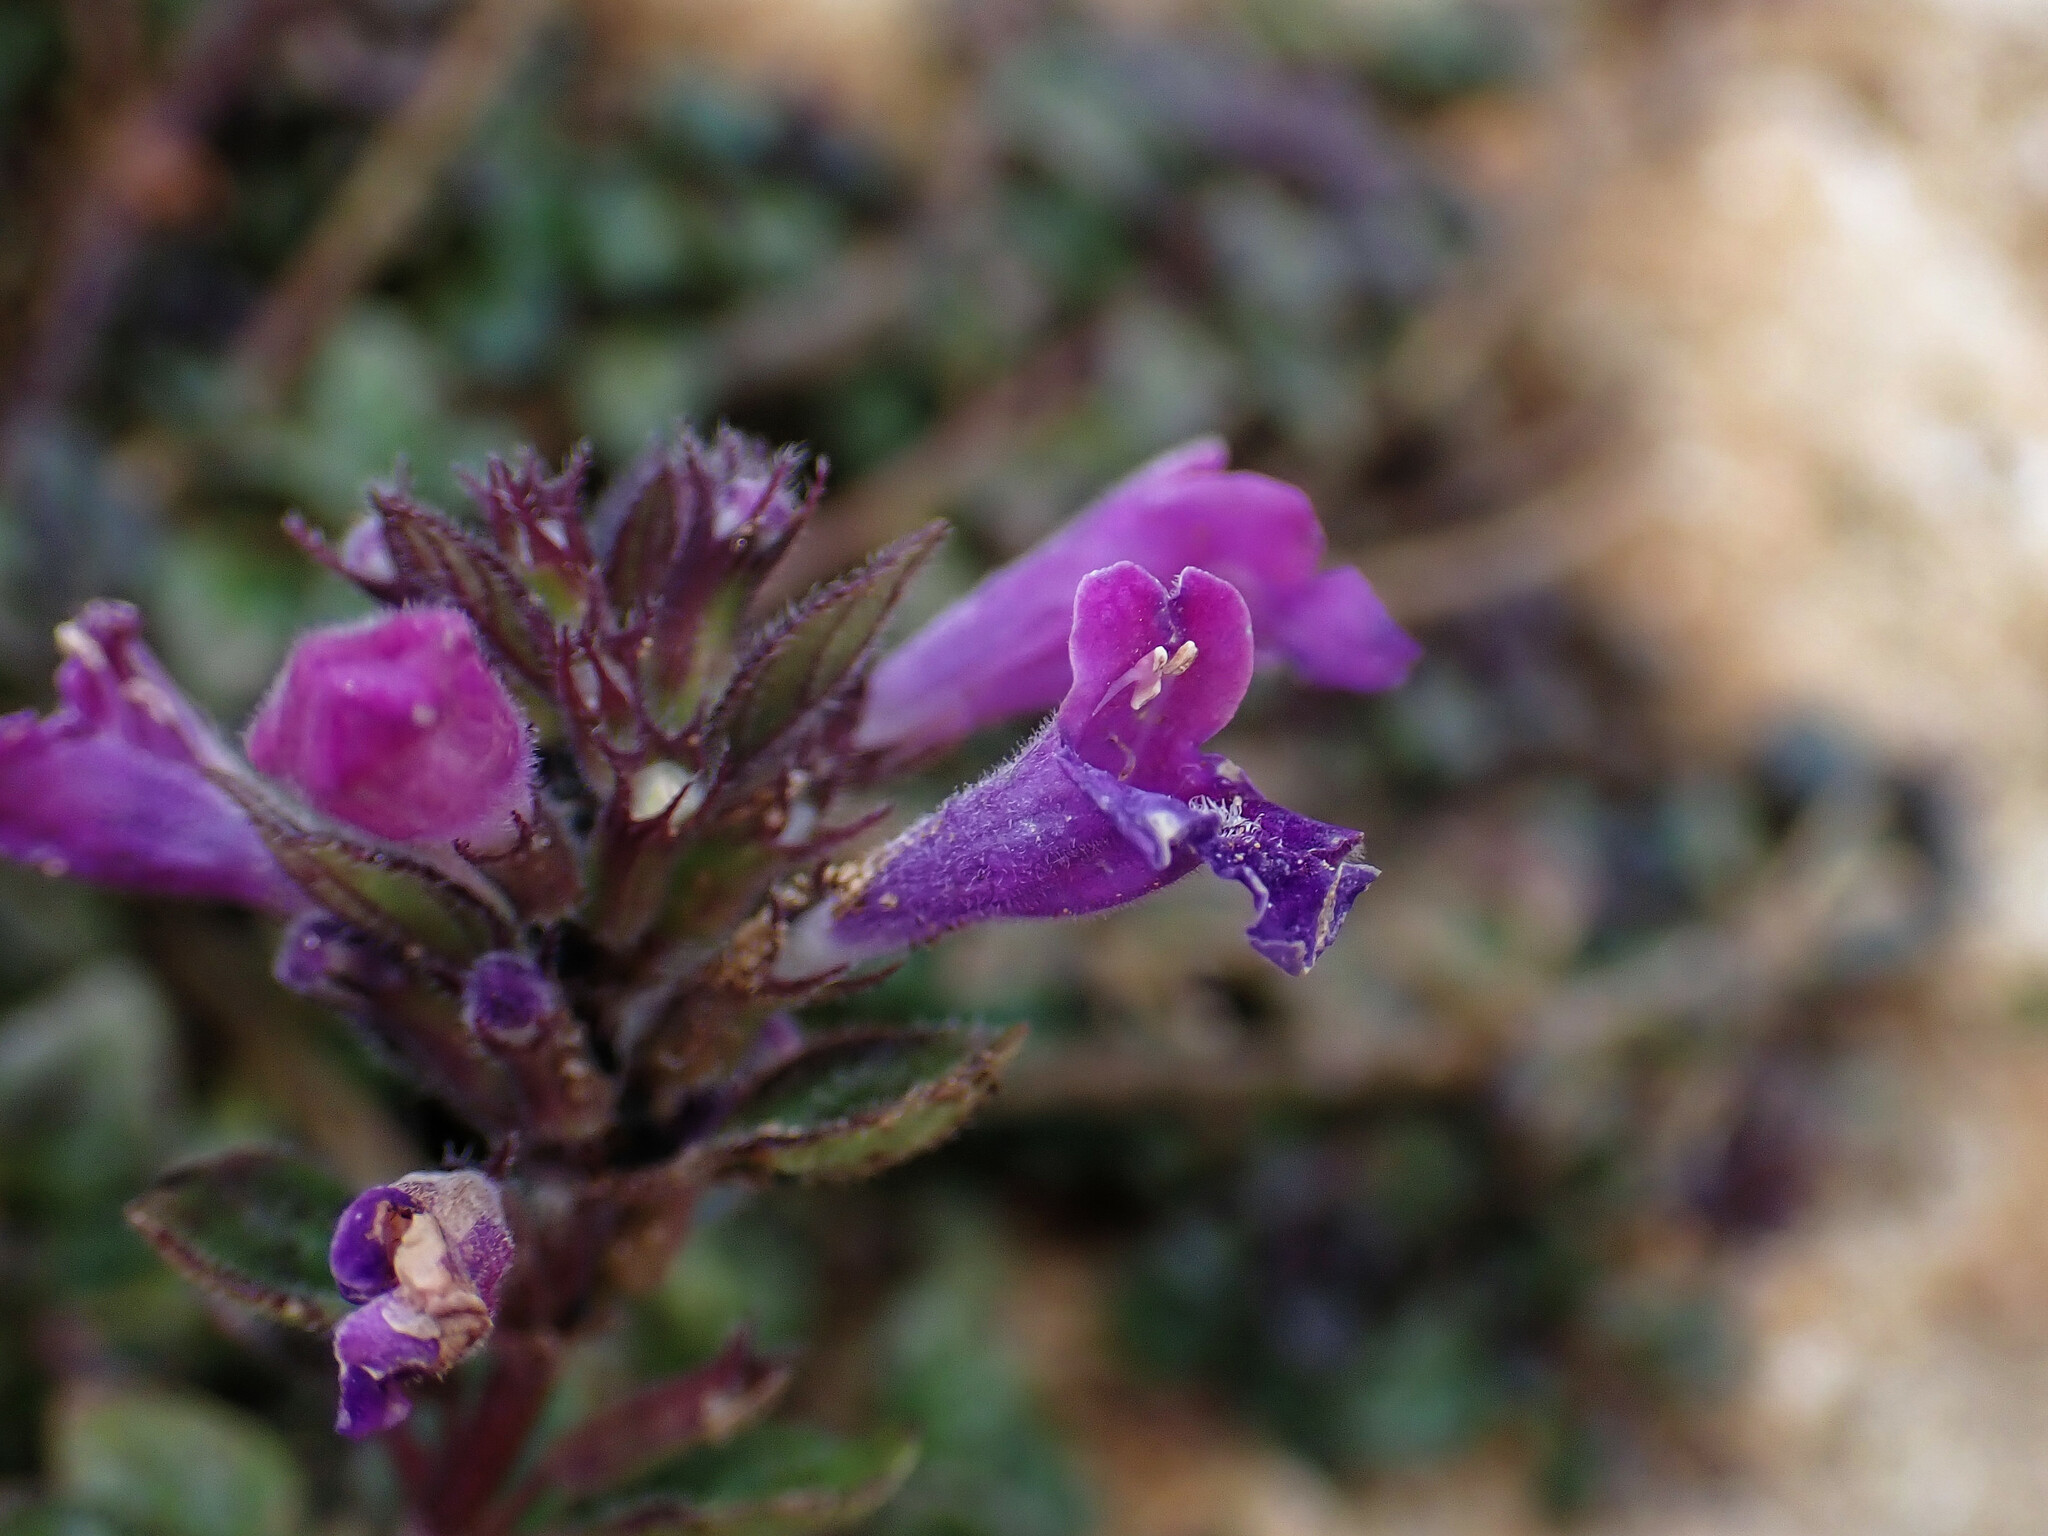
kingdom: Plantae
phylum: Tracheophyta
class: Magnoliopsida
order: Lamiales
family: Lamiaceae
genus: Clinopodium
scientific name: Clinopodium alpinum
